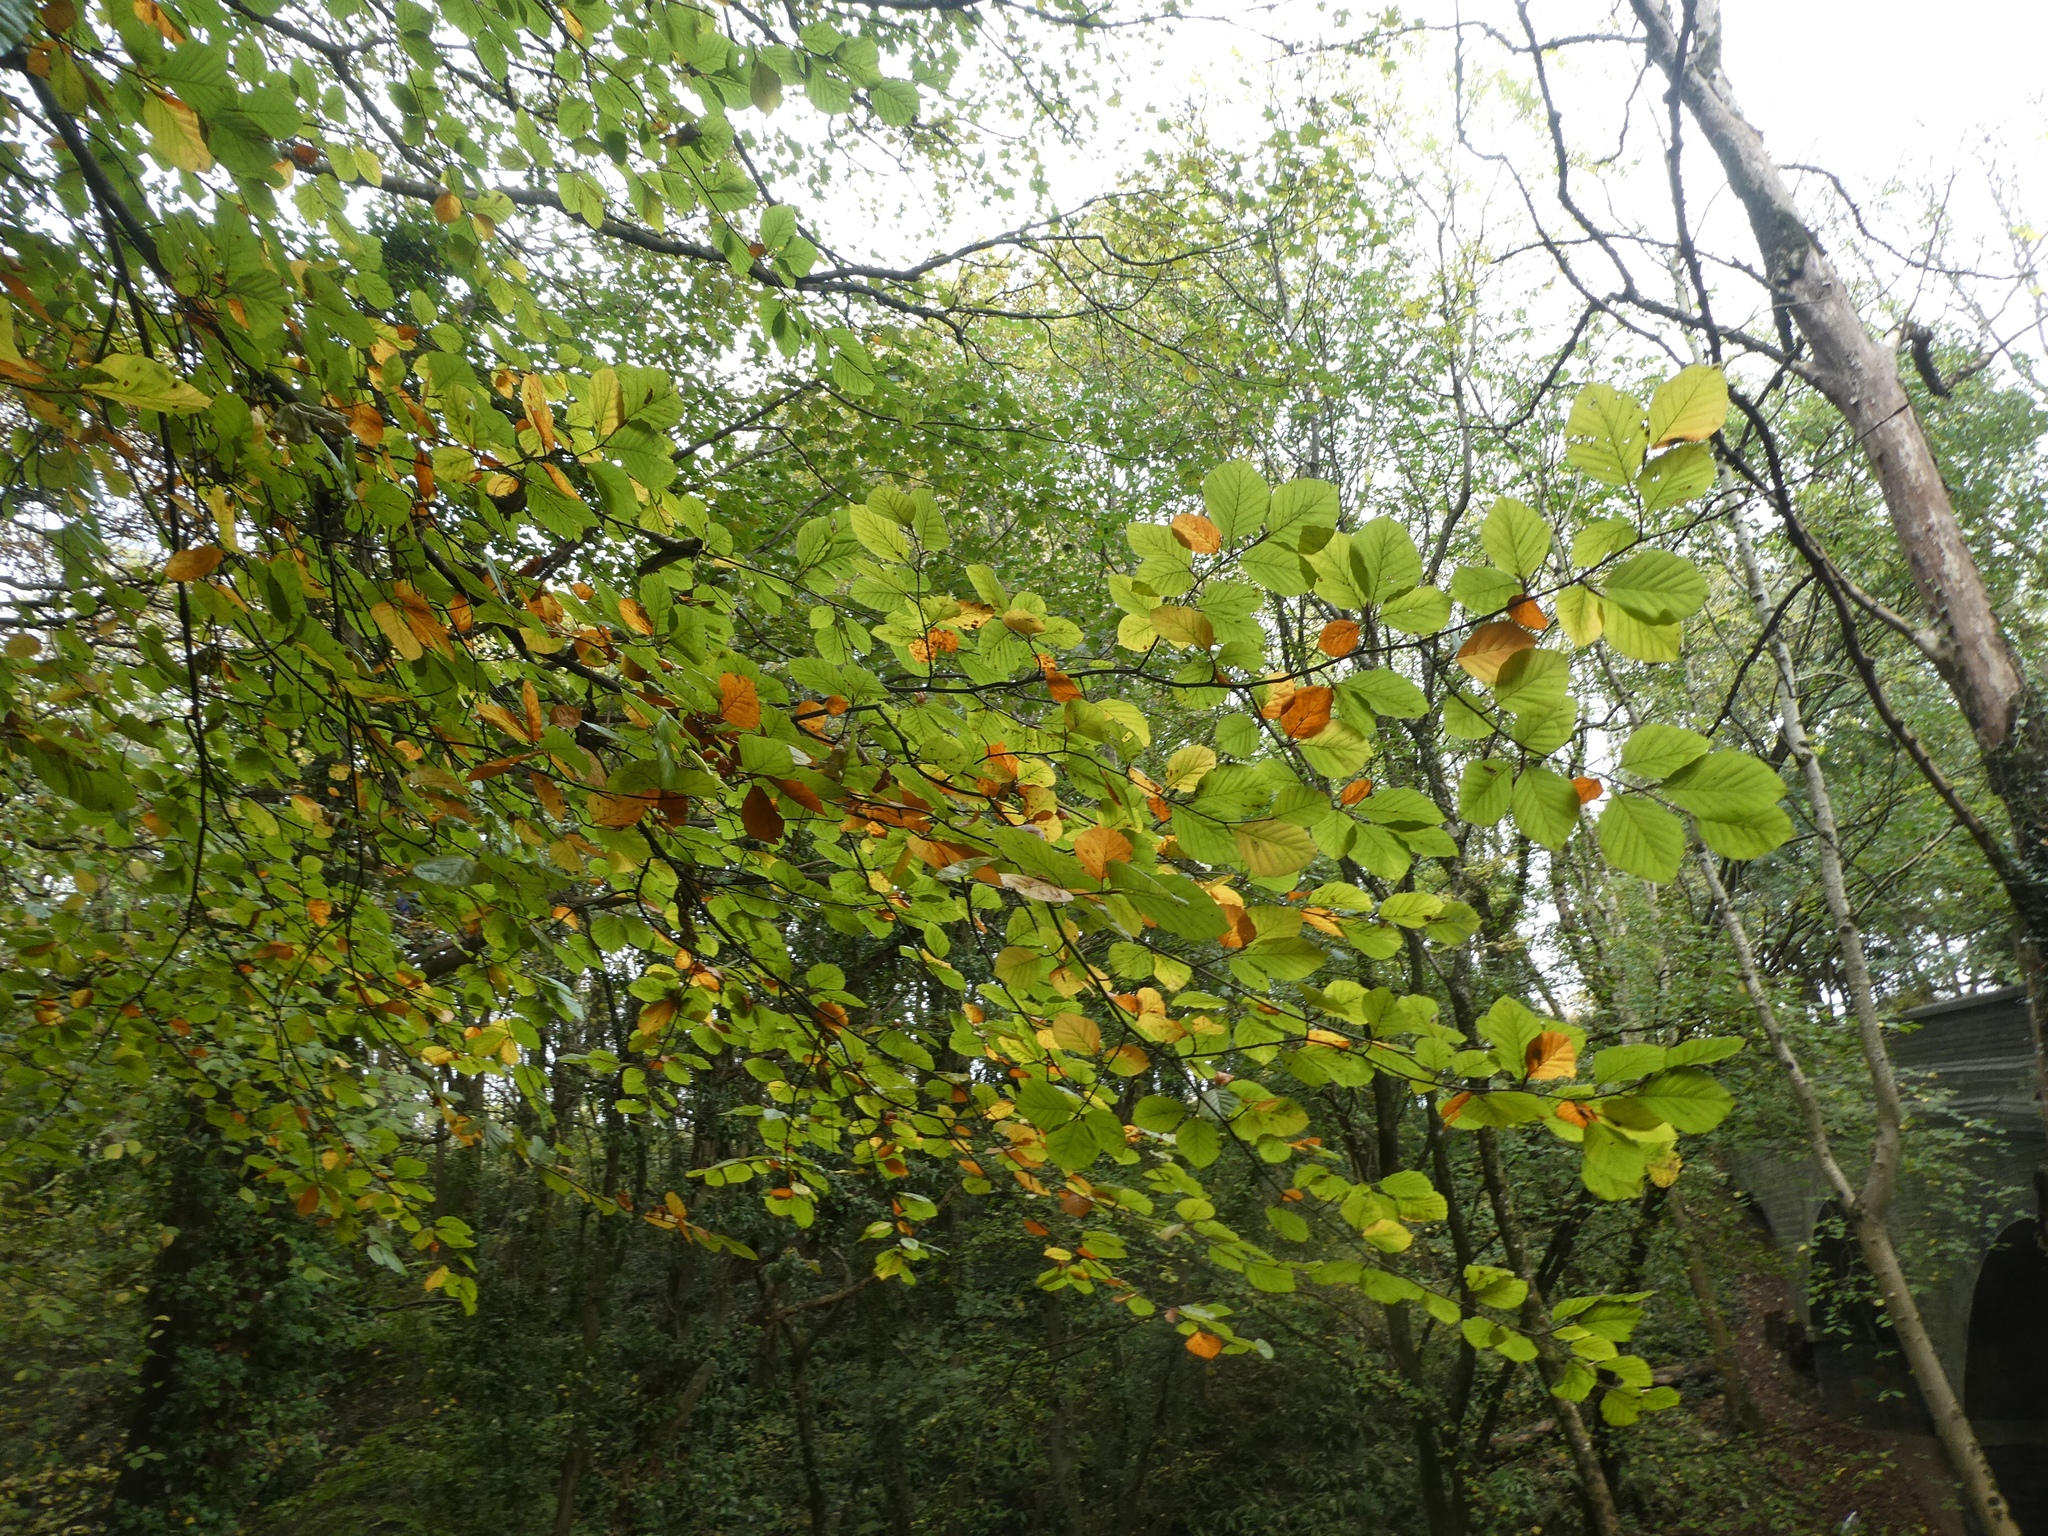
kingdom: Plantae
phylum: Tracheophyta
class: Magnoliopsida
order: Fagales
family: Fagaceae
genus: Fagus
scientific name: Fagus sylvatica
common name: Beech
